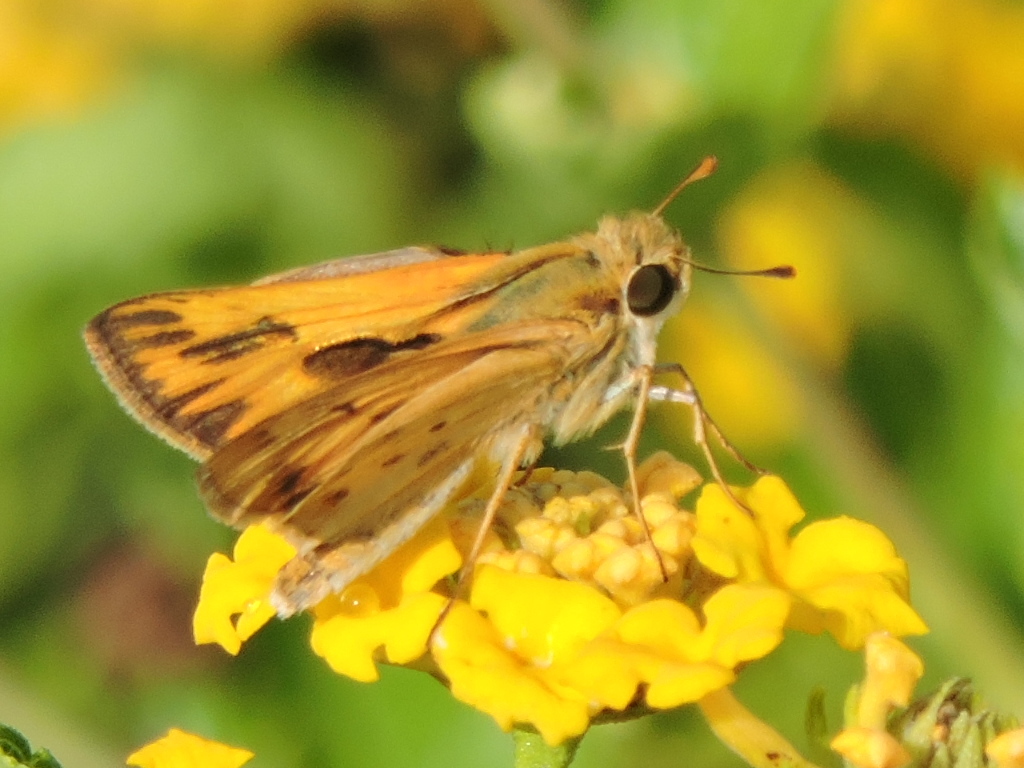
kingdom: Animalia
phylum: Arthropoda
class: Insecta
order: Lepidoptera
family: Hesperiidae
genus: Hylephila
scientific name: Hylephila phyleus
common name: Fiery skipper
